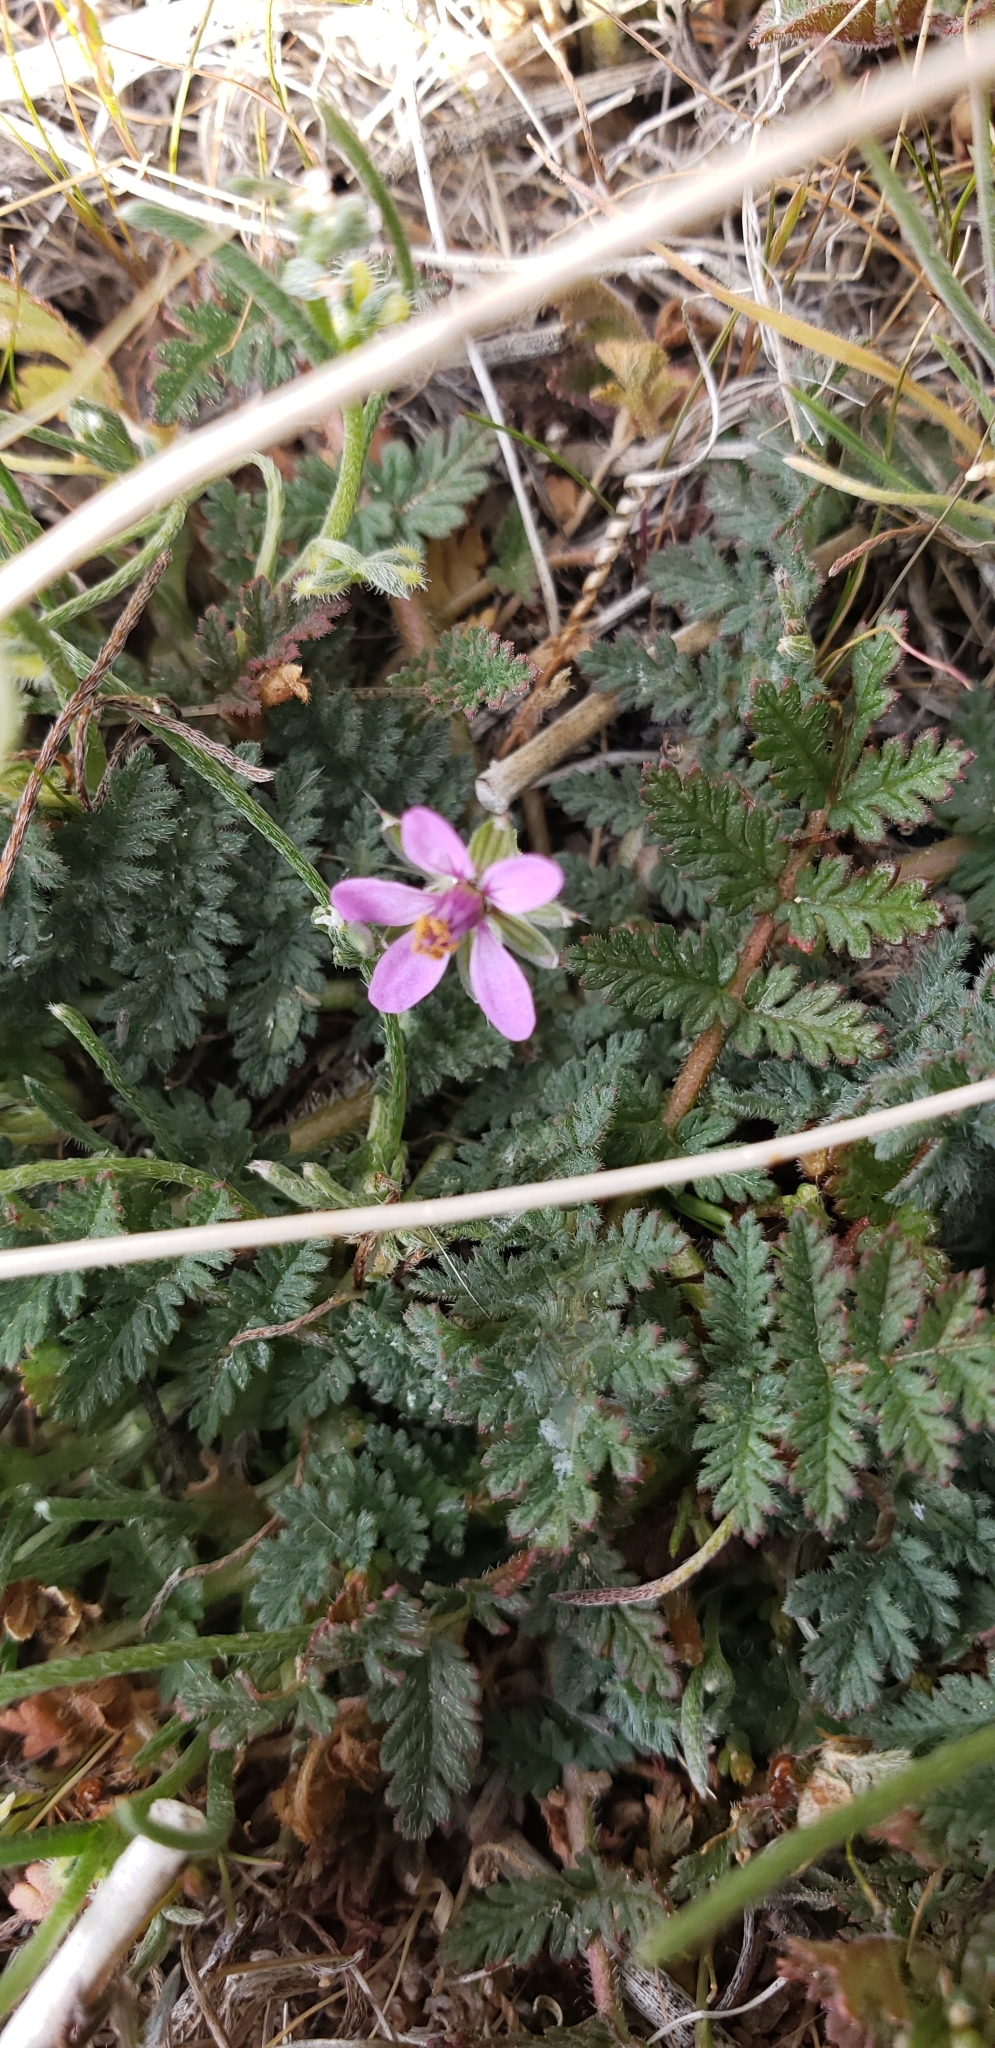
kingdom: Plantae
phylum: Tracheophyta
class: Magnoliopsida
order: Geraniales
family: Geraniaceae
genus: Erodium
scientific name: Erodium cicutarium
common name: Common stork's-bill
